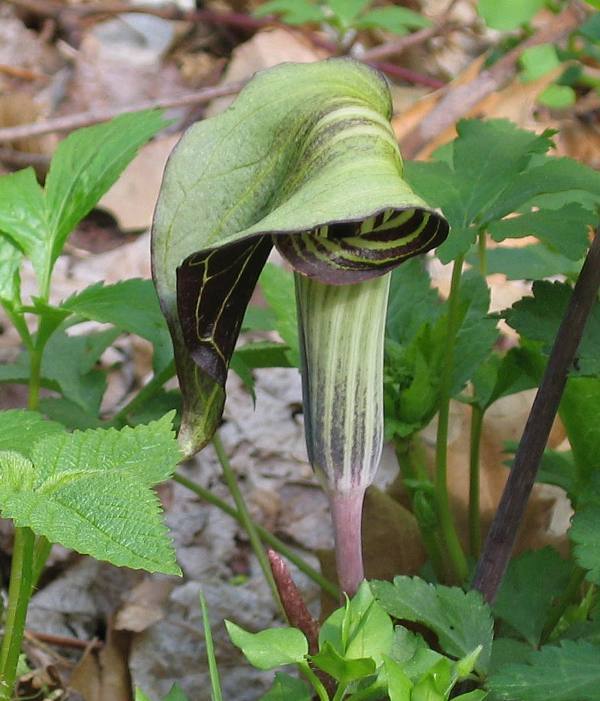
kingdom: Plantae
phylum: Tracheophyta
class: Liliopsida
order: Alismatales
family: Araceae
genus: Arisaema
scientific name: Arisaema triphyllum
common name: Jack-in-the-pulpit
